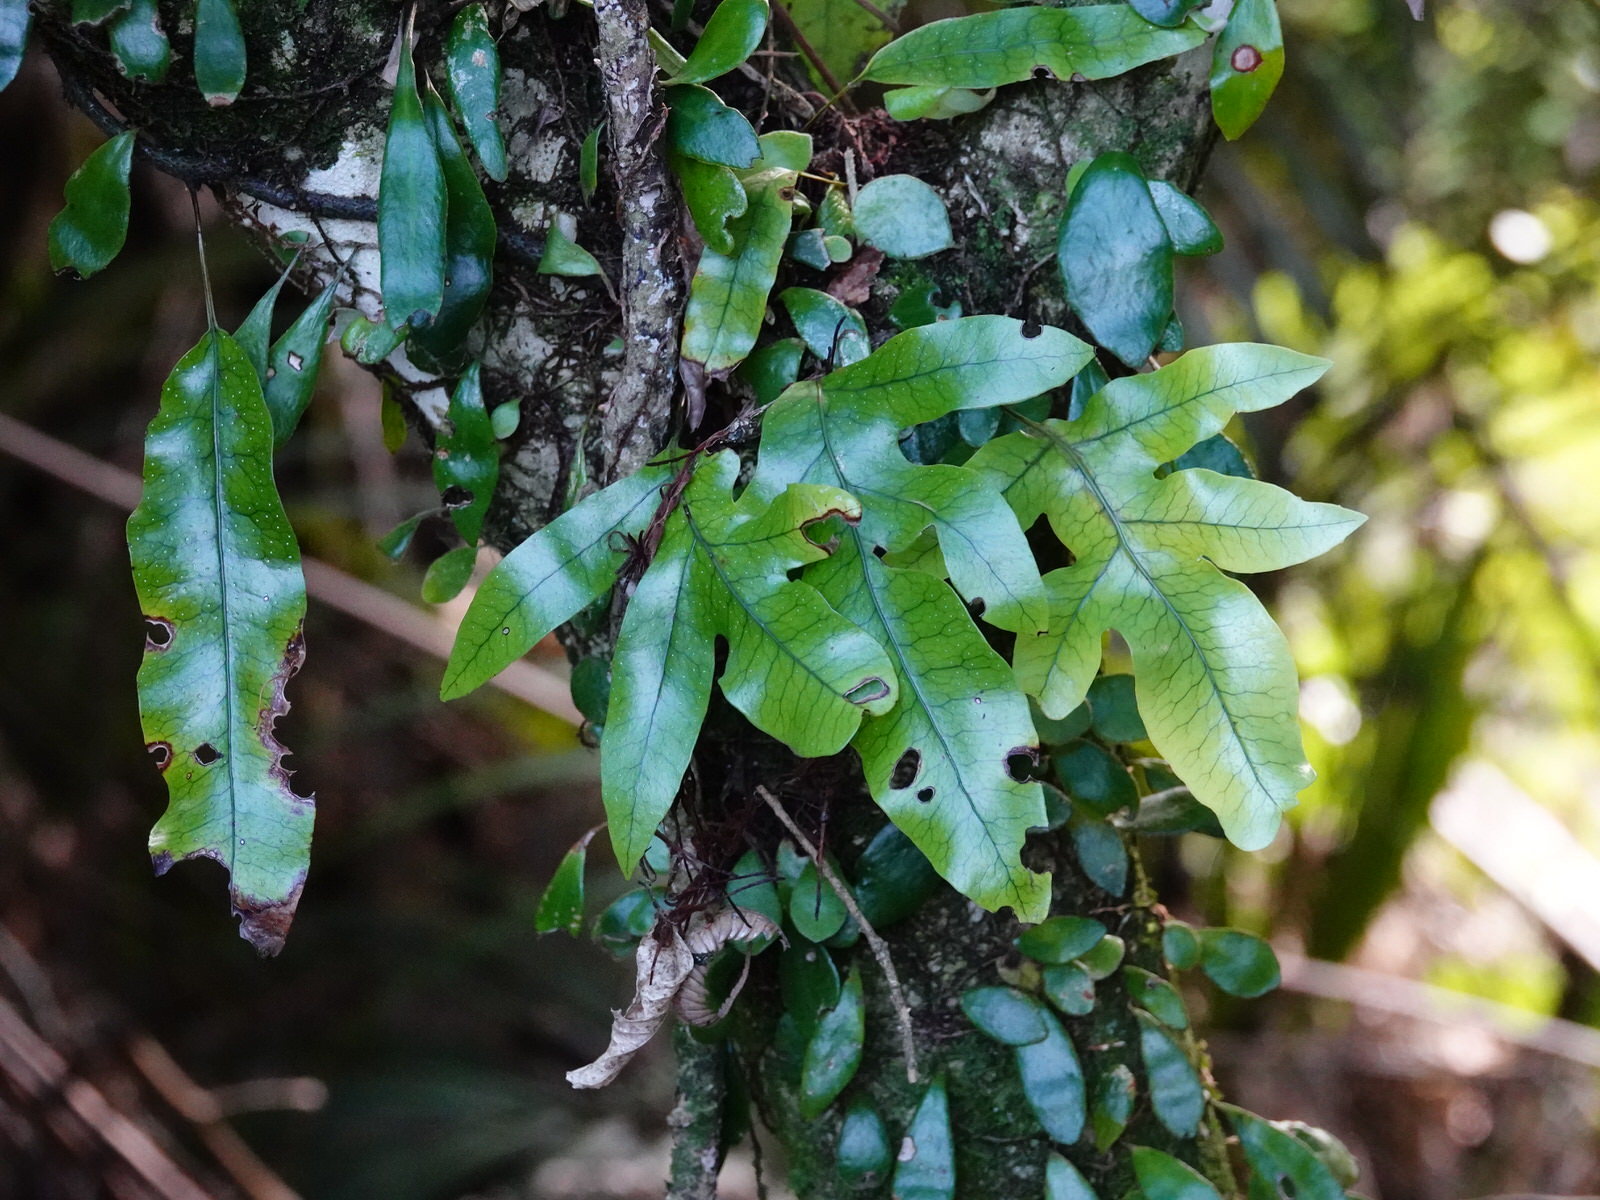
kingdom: Plantae
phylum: Tracheophyta
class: Polypodiopsida
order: Polypodiales
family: Polypodiaceae
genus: Lecanopteris
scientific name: Lecanopteris pustulata
